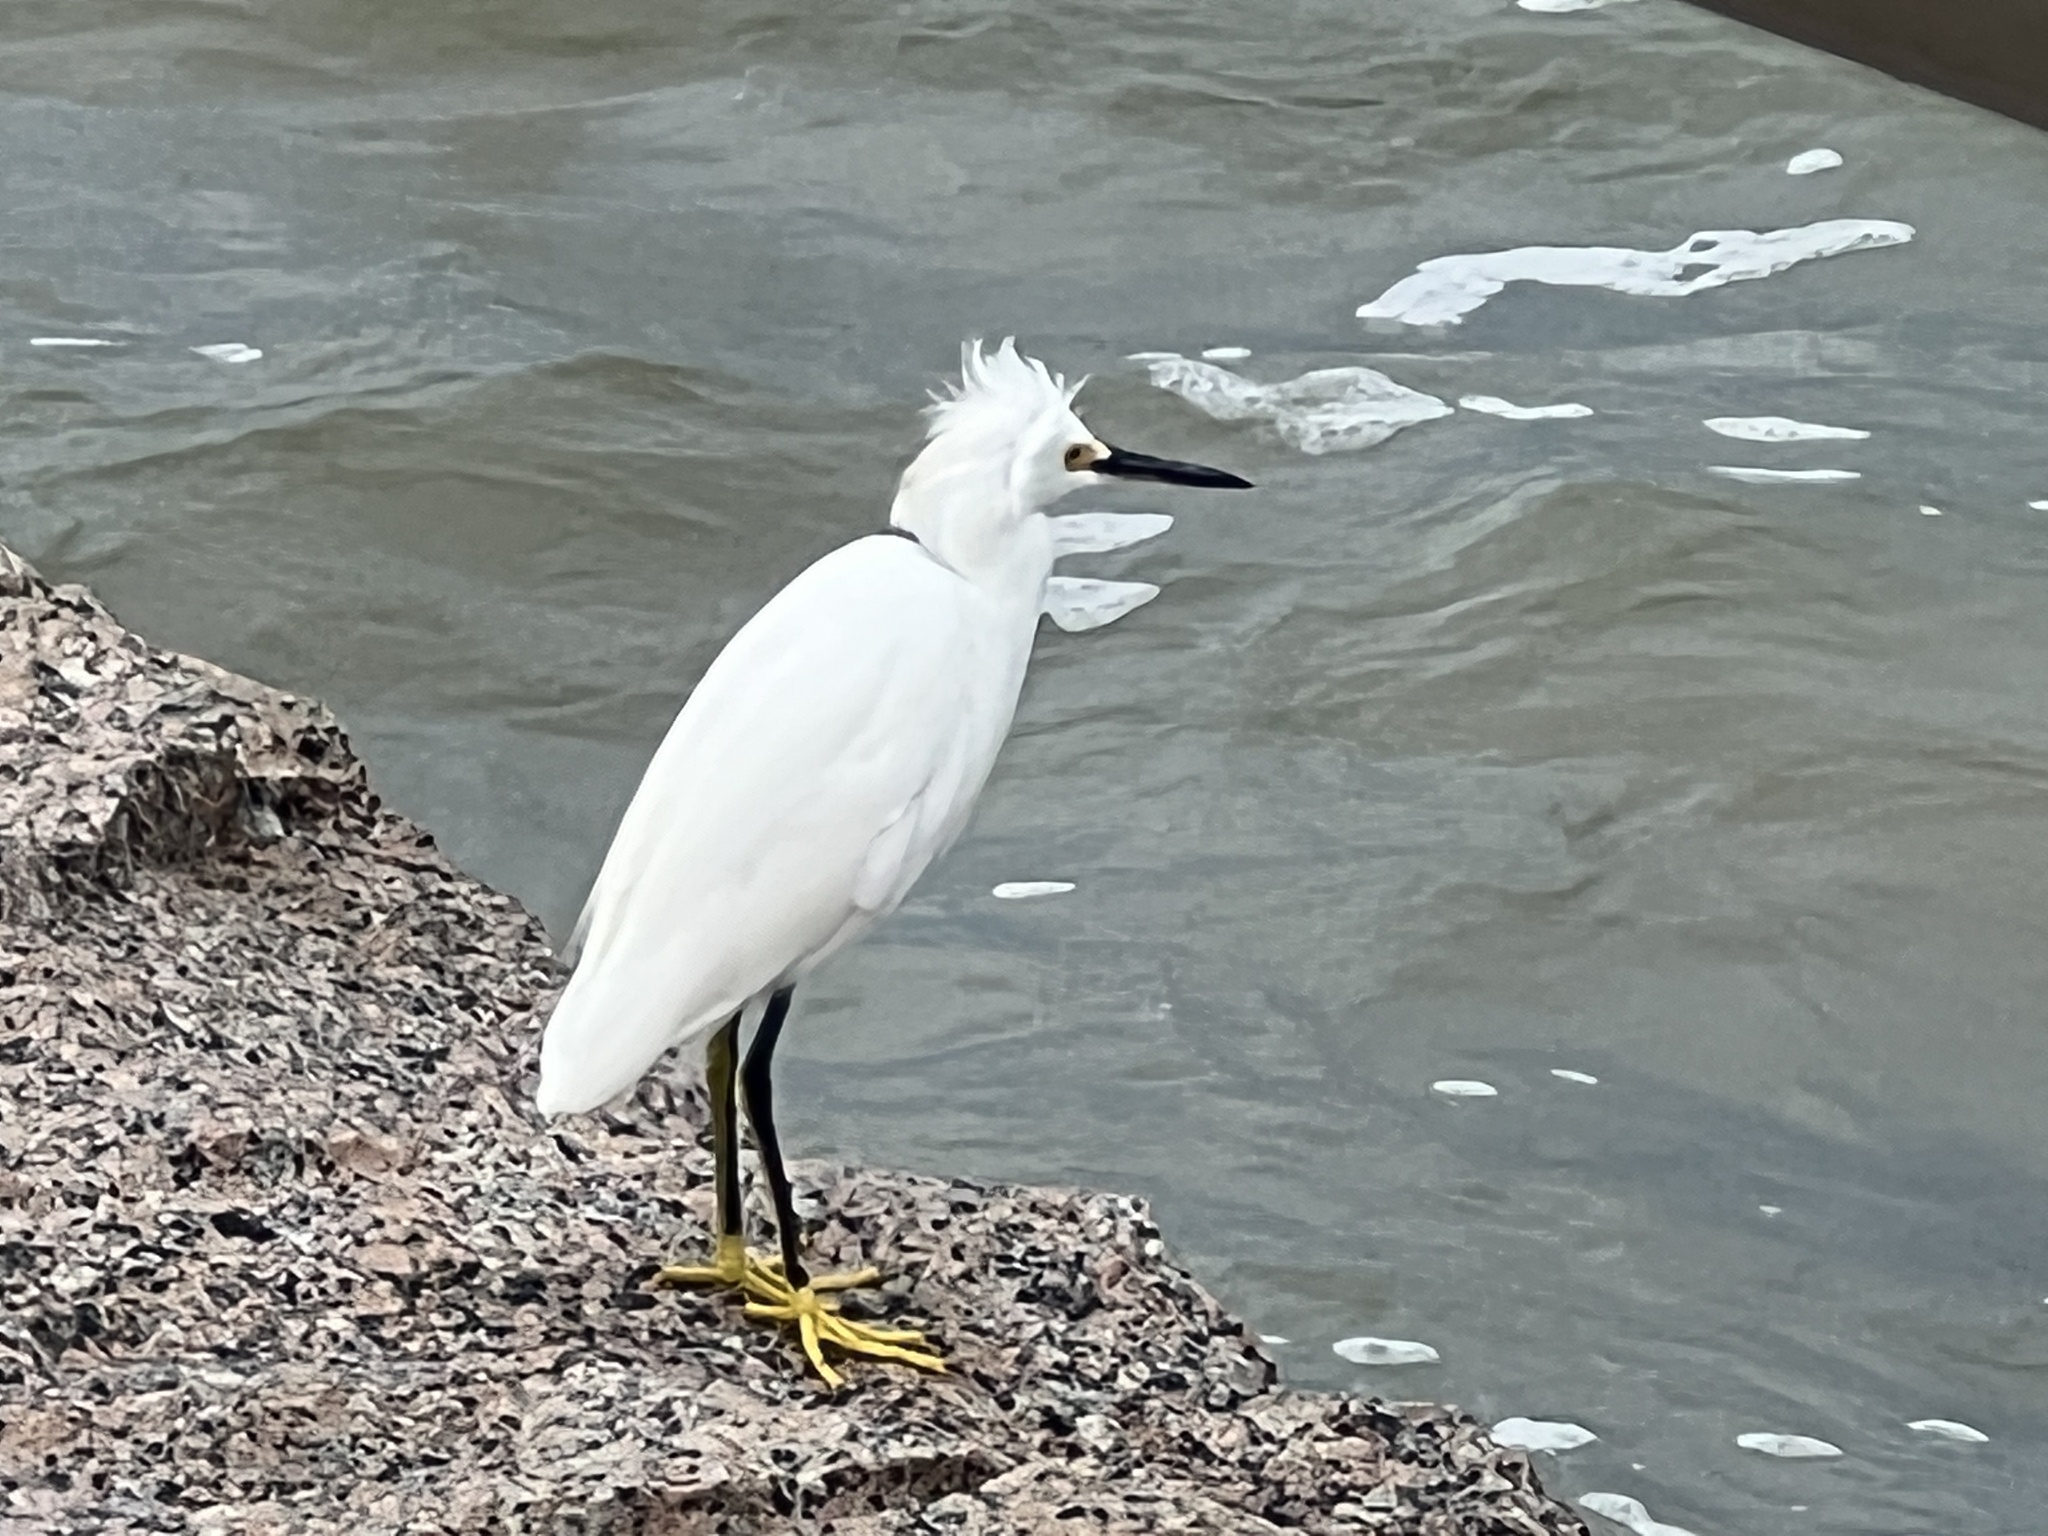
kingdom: Animalia
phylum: Chordata
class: Aves
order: Pelecaniformes
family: Ardeidae
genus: Egretta
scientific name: Egretta thula
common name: Snowy egret
